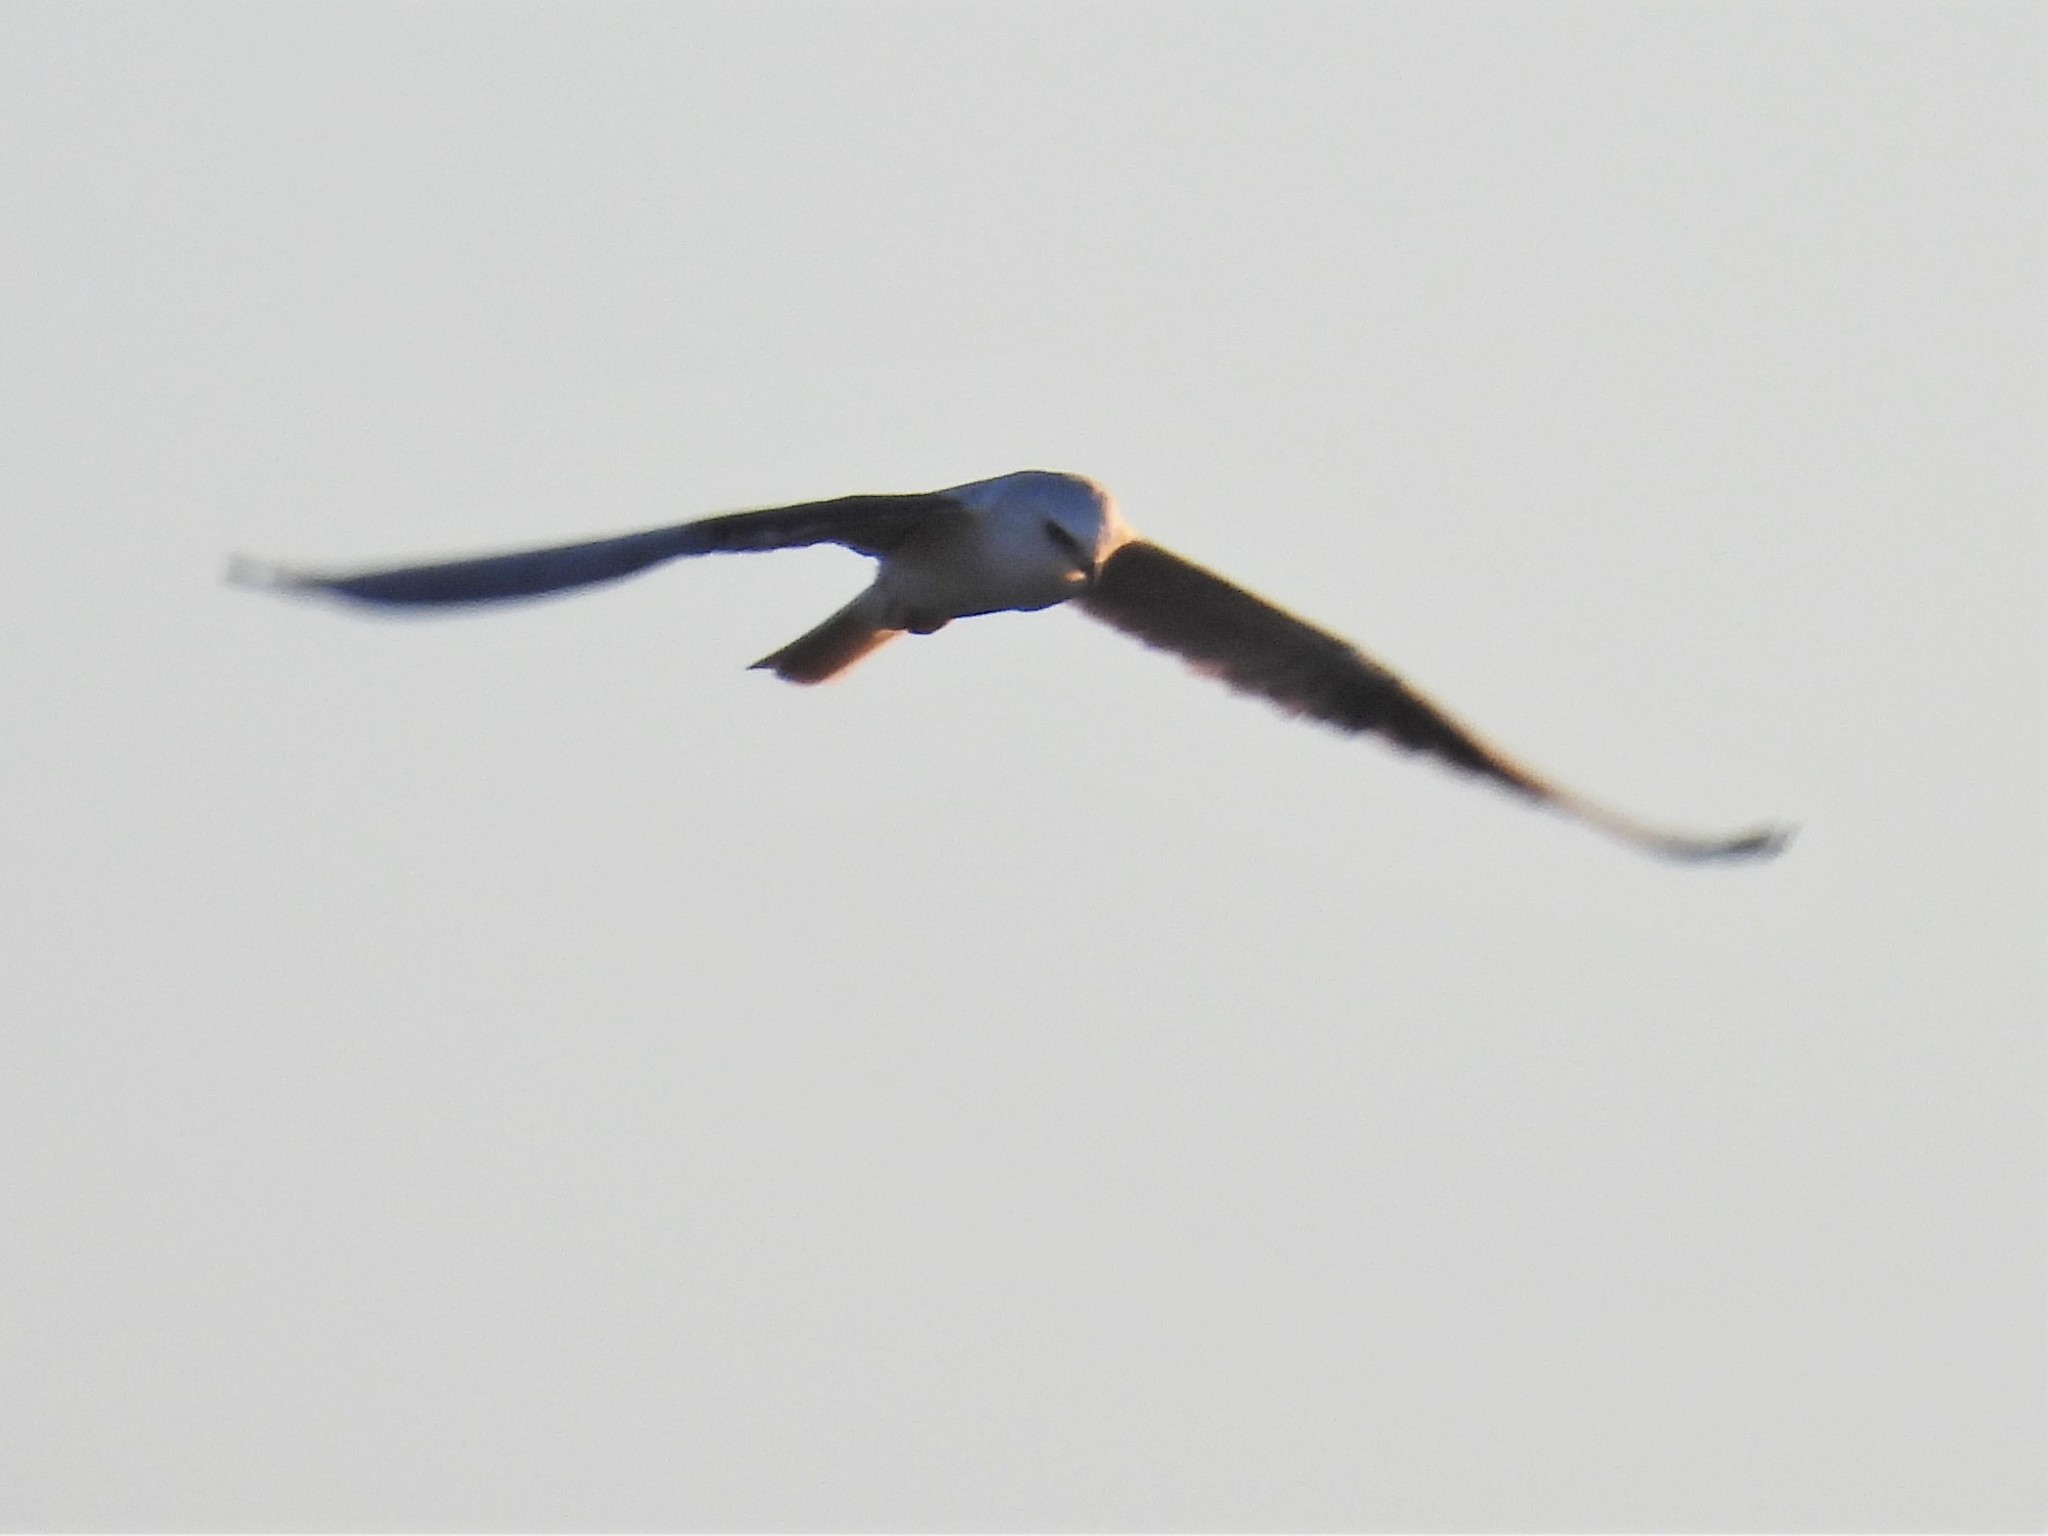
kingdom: Animalia
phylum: Chordata
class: Aves
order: Accipitriformes
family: Accipitridae
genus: Elanus
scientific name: Elanus leucurus
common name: White-tailed kite
